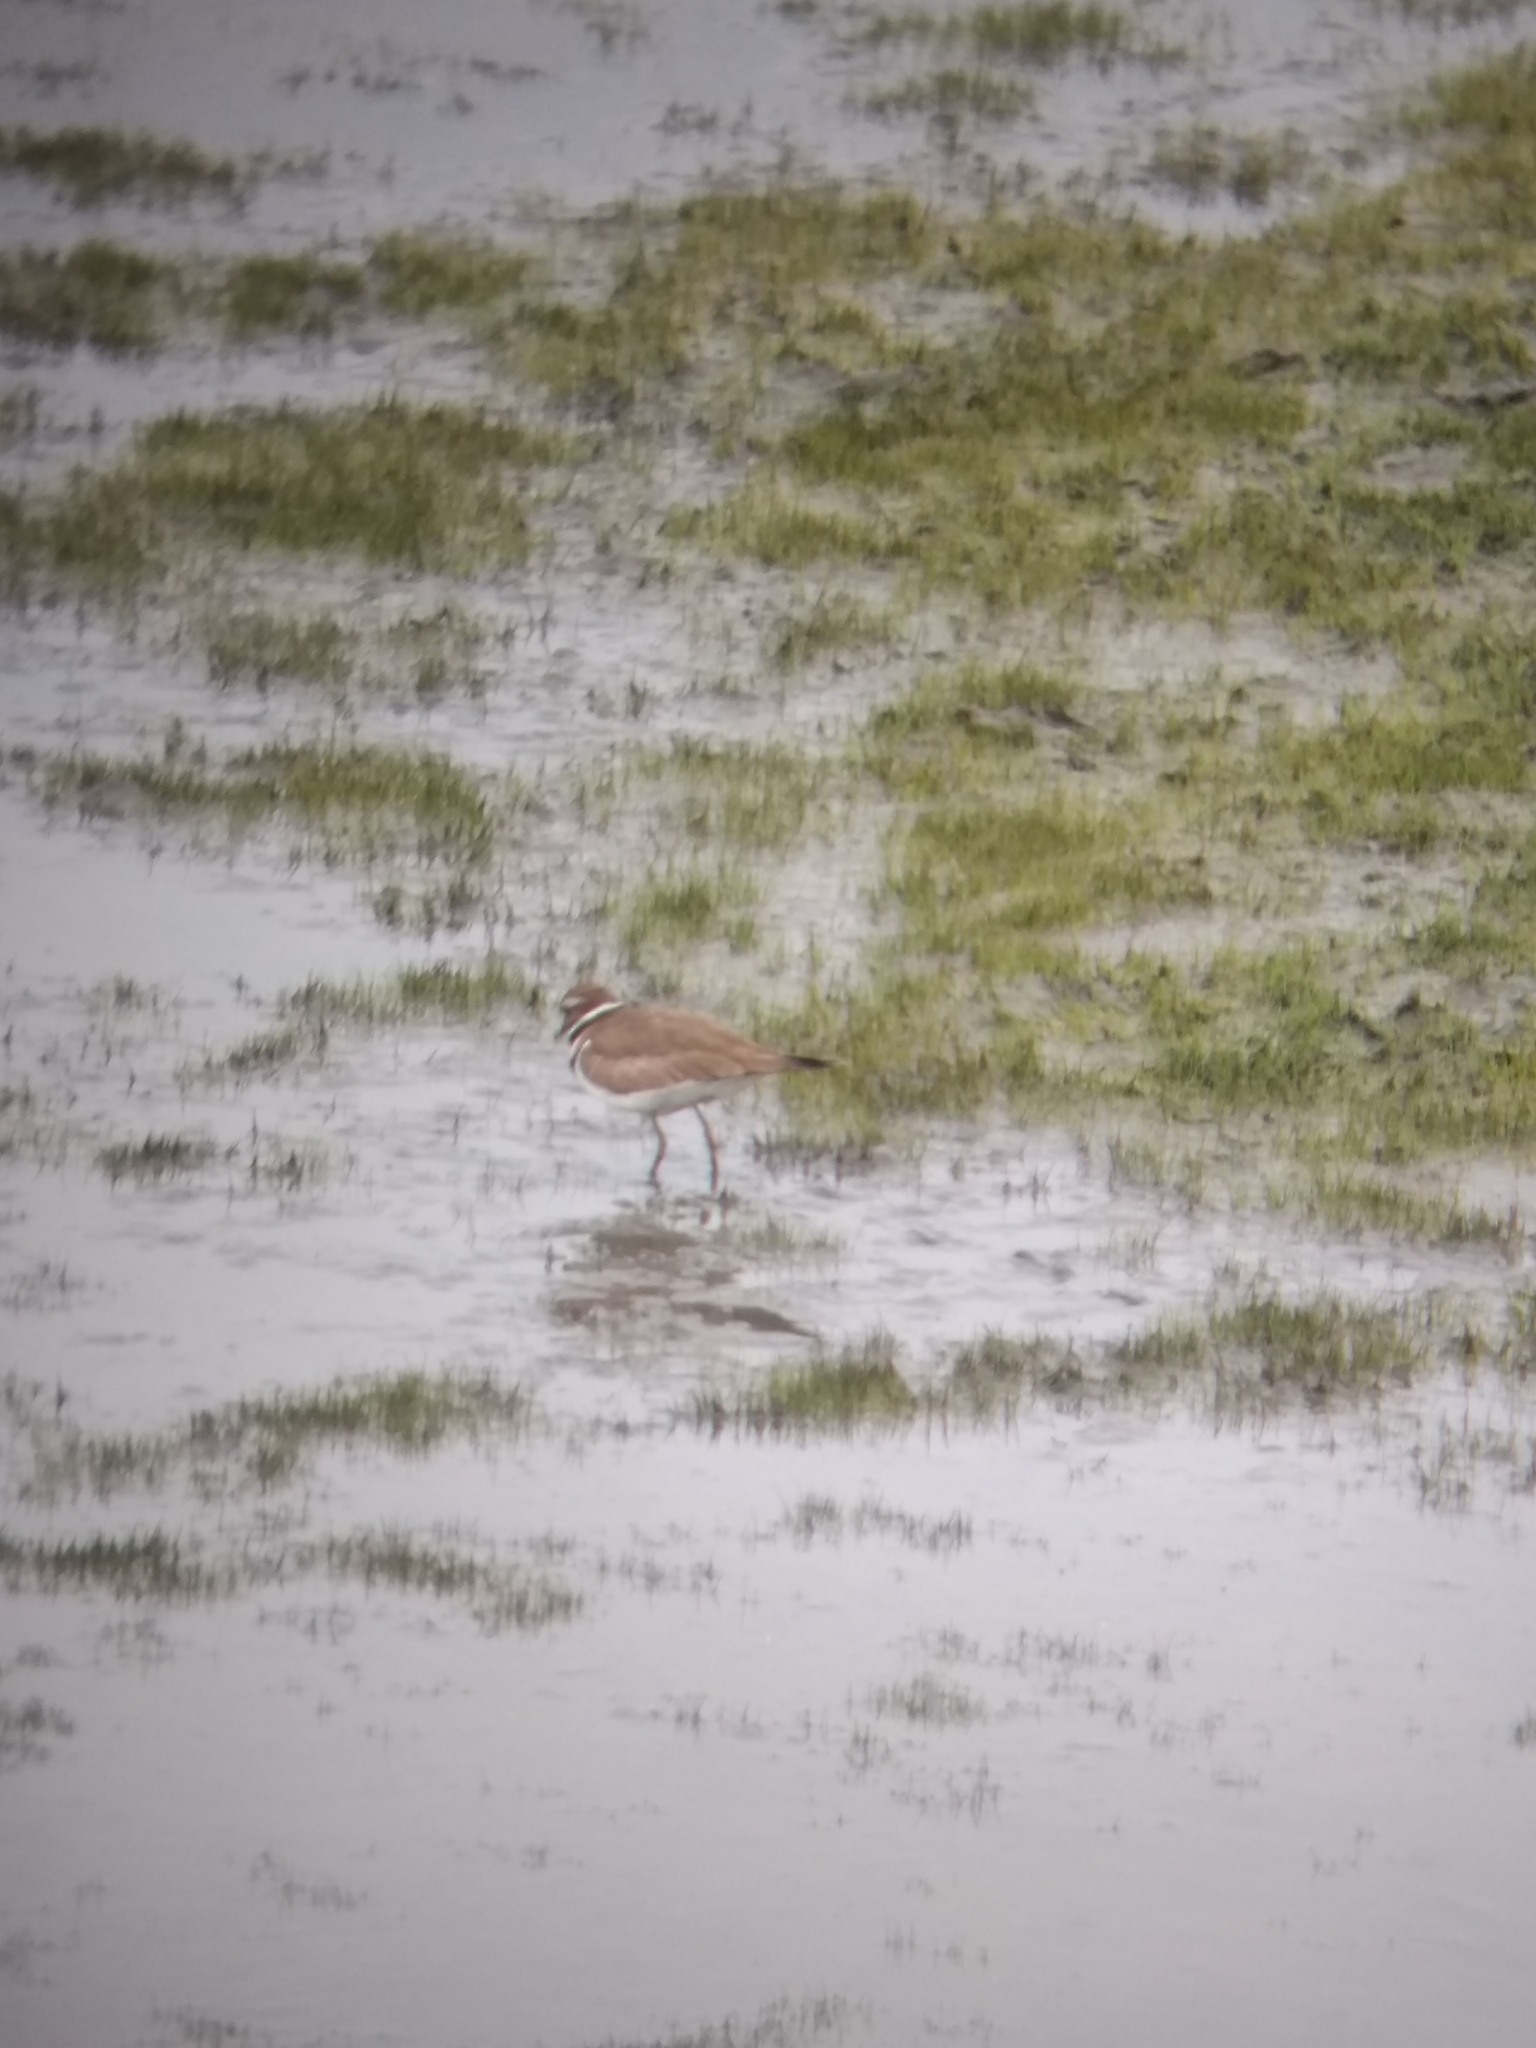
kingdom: Animalia
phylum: Chordata
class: Aves
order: Charadriiformes
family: Charadriidae
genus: Charadrius
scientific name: Charadrius vociferus
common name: Killdeer
